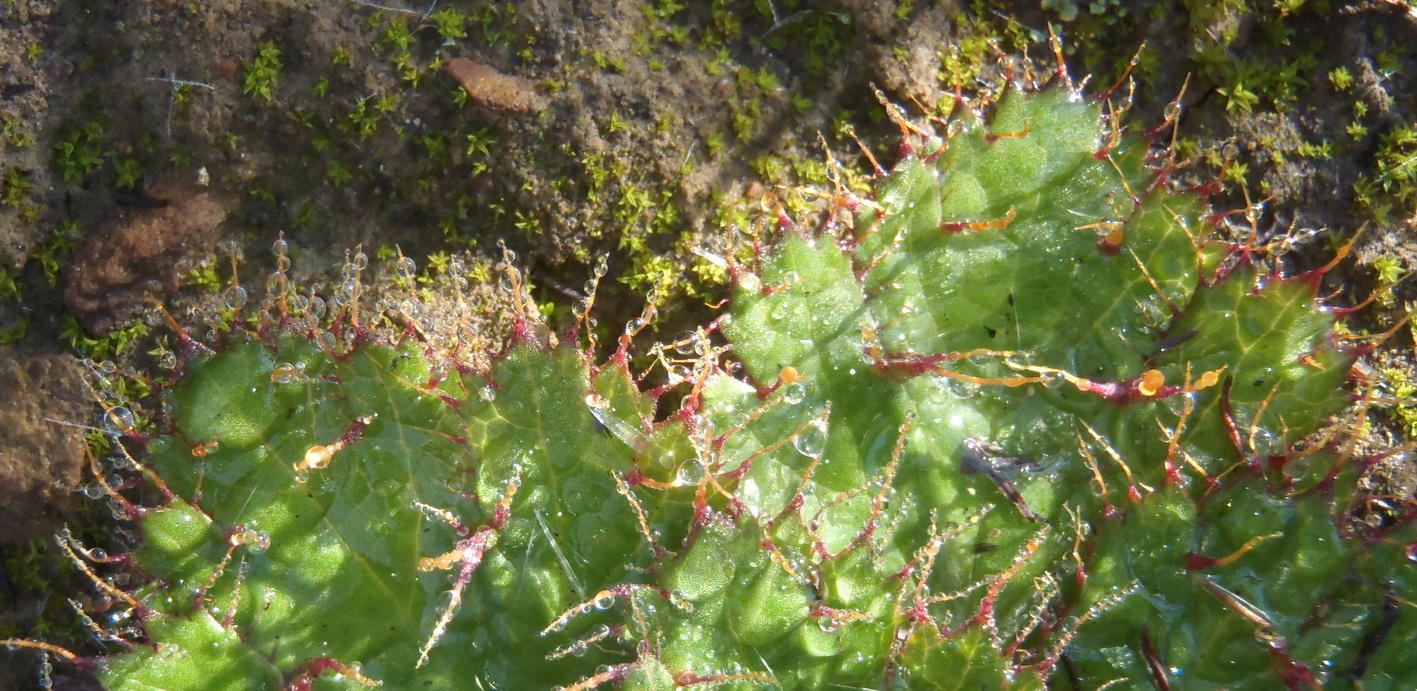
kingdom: Plantae
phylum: Tracheophyta
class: Magnoliopsida
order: Apiales
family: Apiaceae
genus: Arctopus
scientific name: Arctopus echinatus
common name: Platdoring
